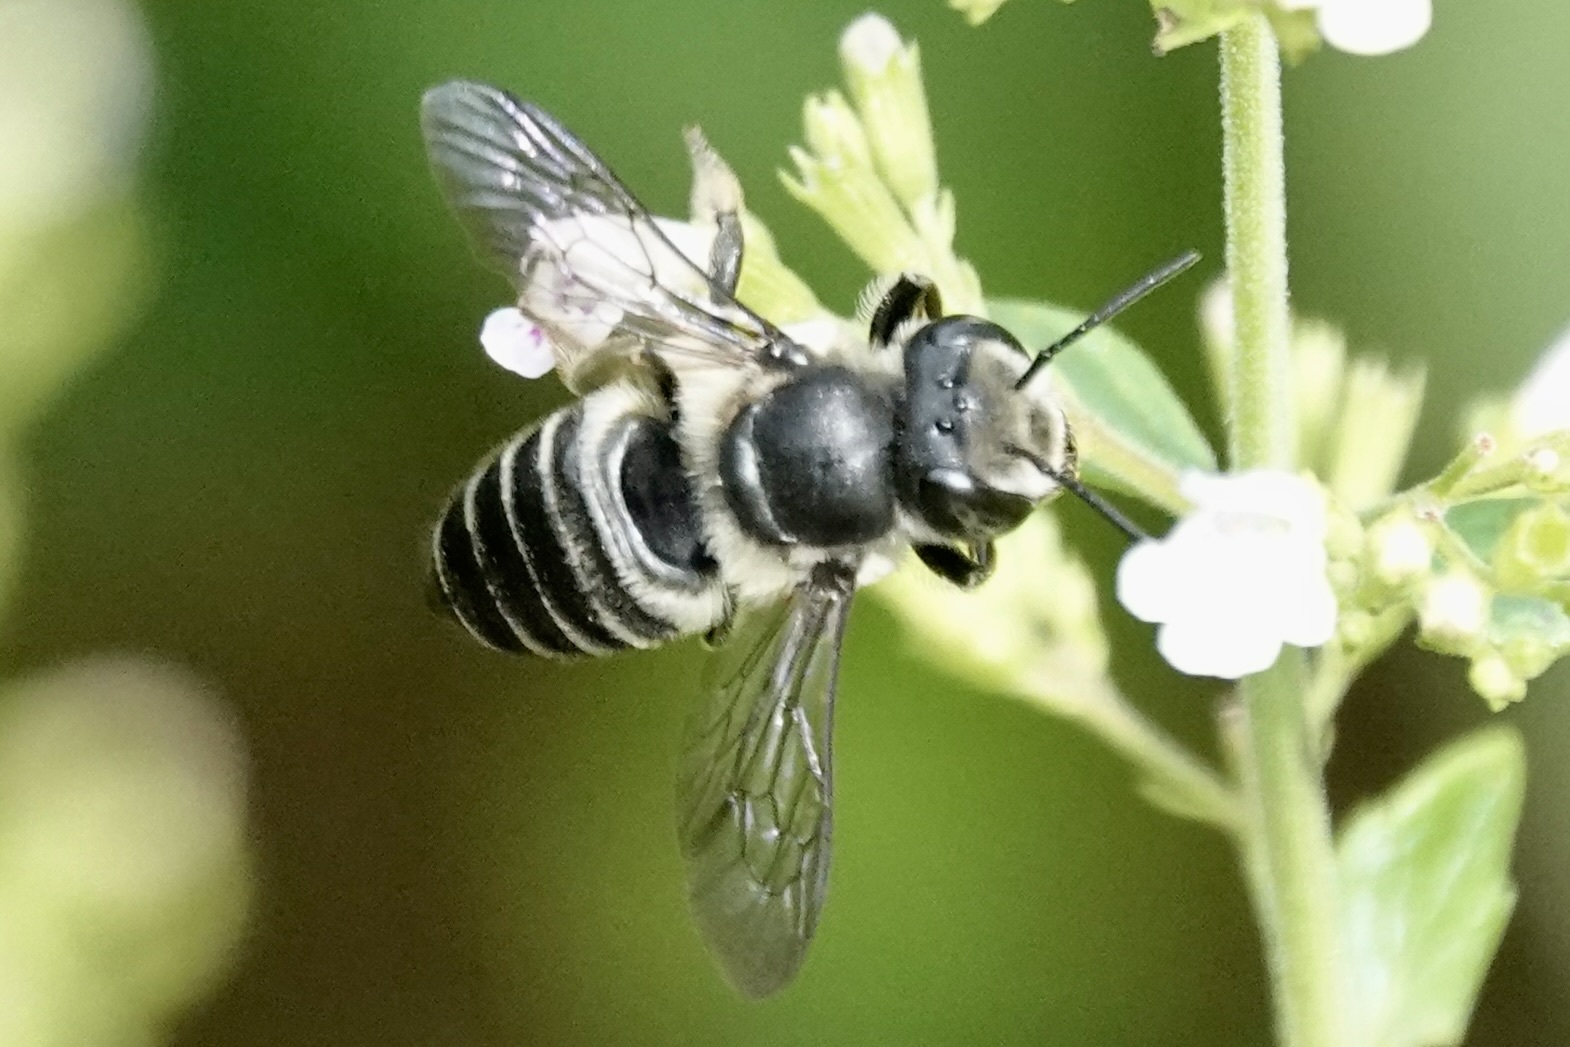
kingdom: Animalia
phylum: Arthropoda
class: Insecta
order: Hymenoptera
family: Megachilidae
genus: Megachile
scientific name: Megachile mendica
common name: Flat-tailed leafcutter
